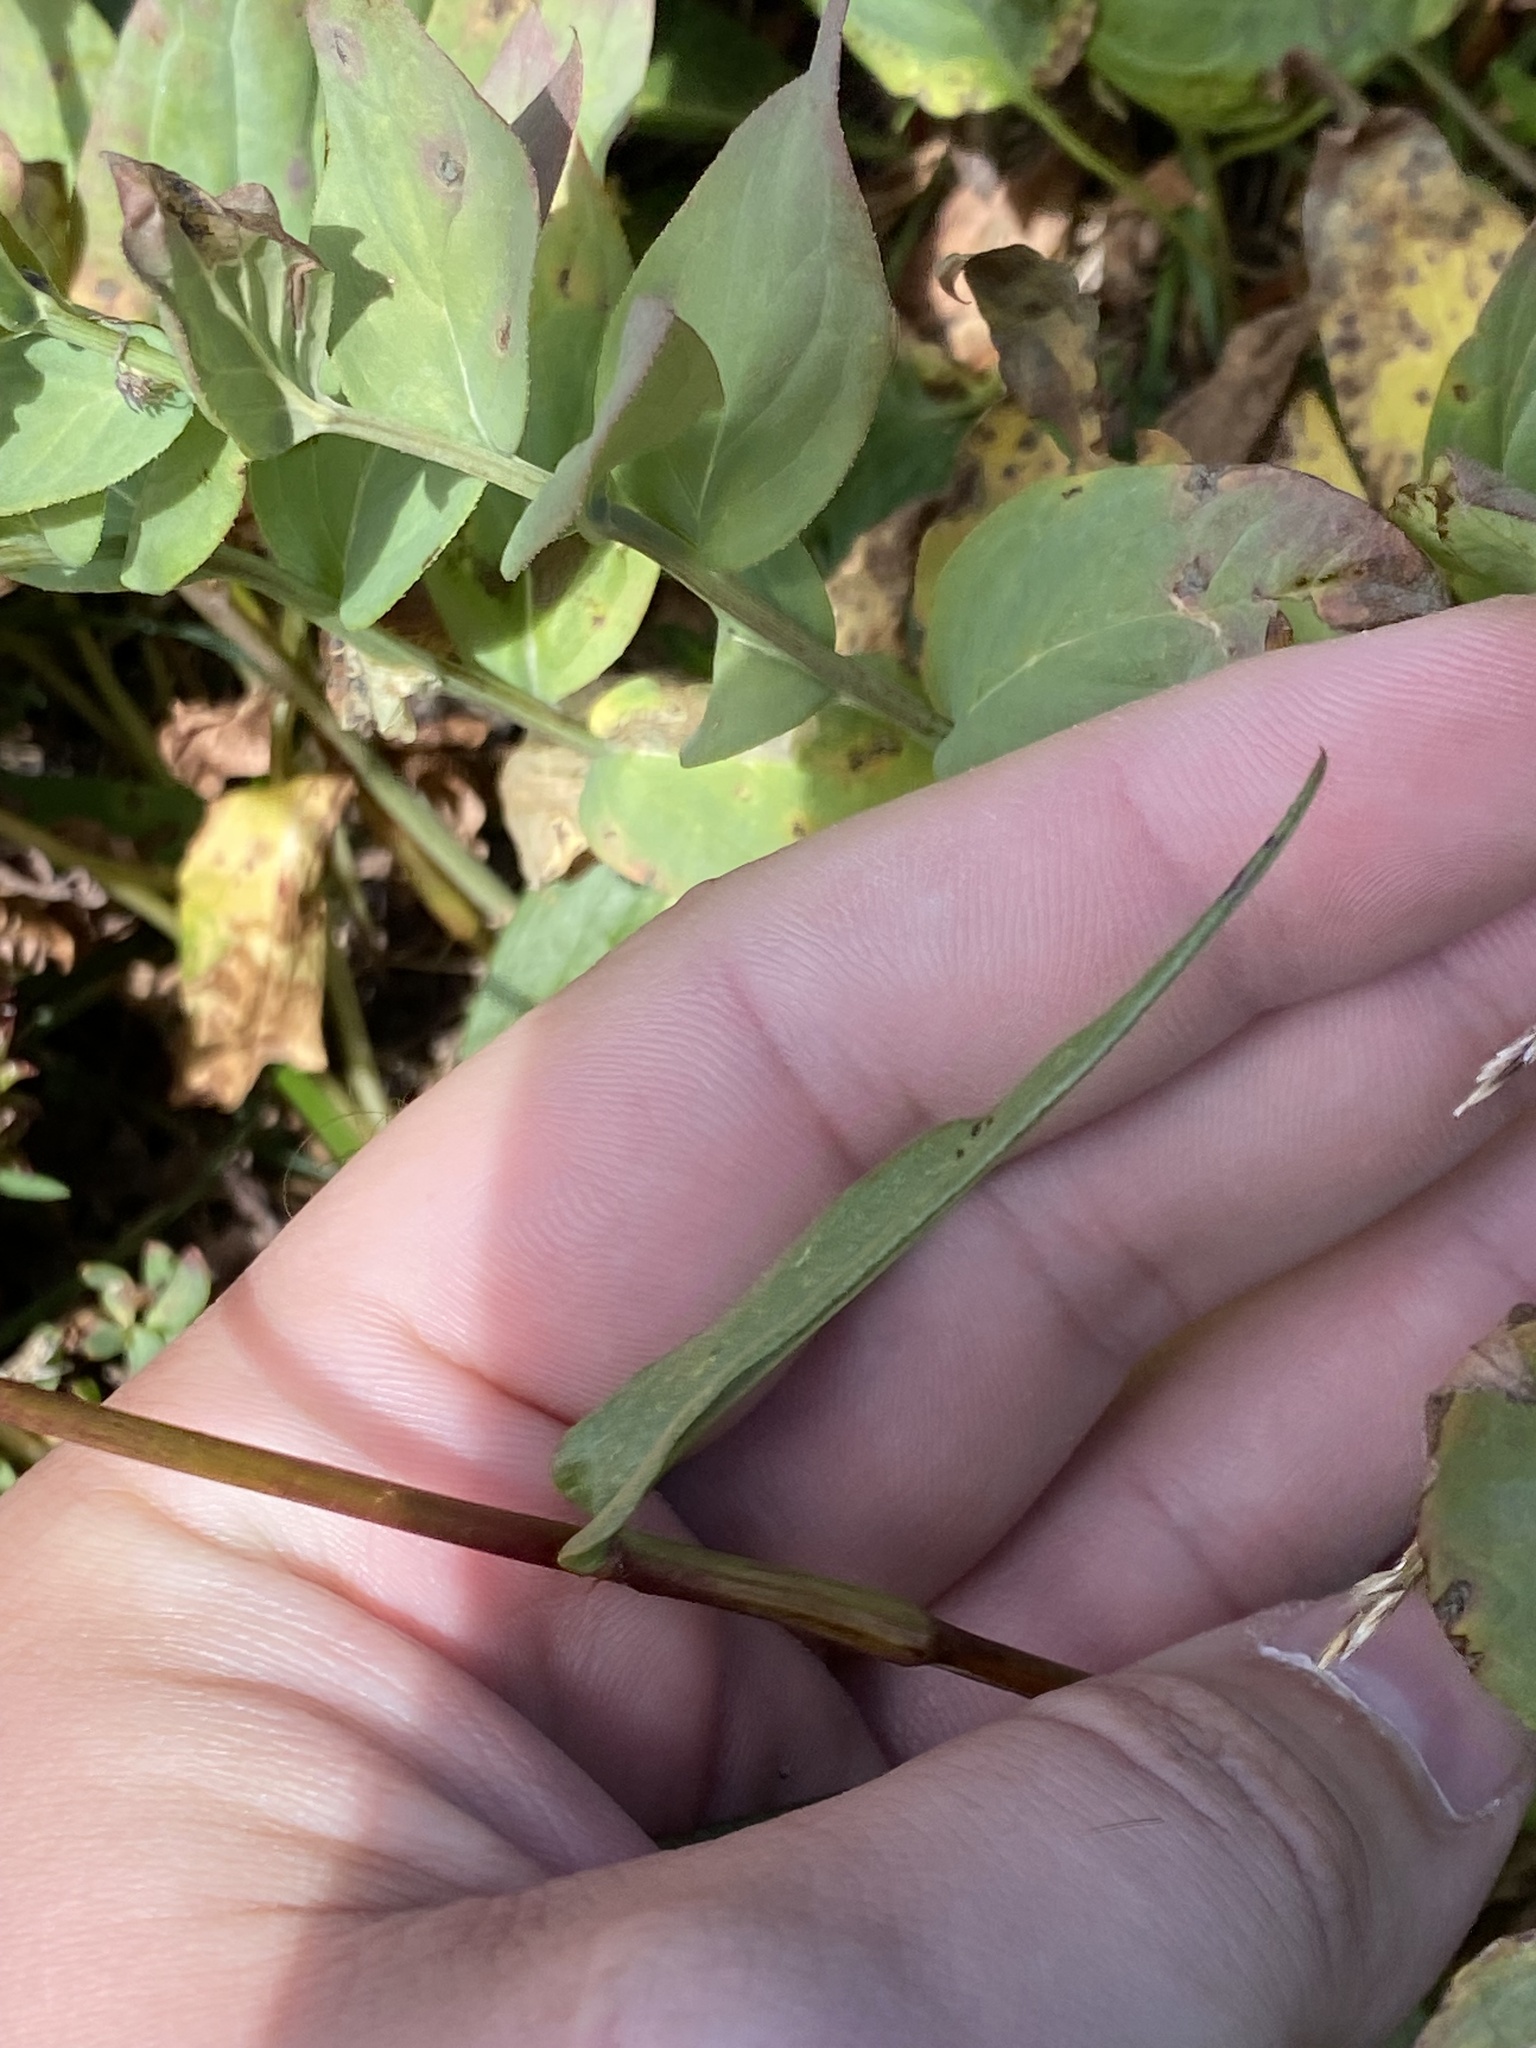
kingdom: Plantae
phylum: Tracheophyta
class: Magnoliopsida
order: Caryophyllales
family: Polygonaceae
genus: Bistorta
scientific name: Bistorta bistortoides
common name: American bistort
